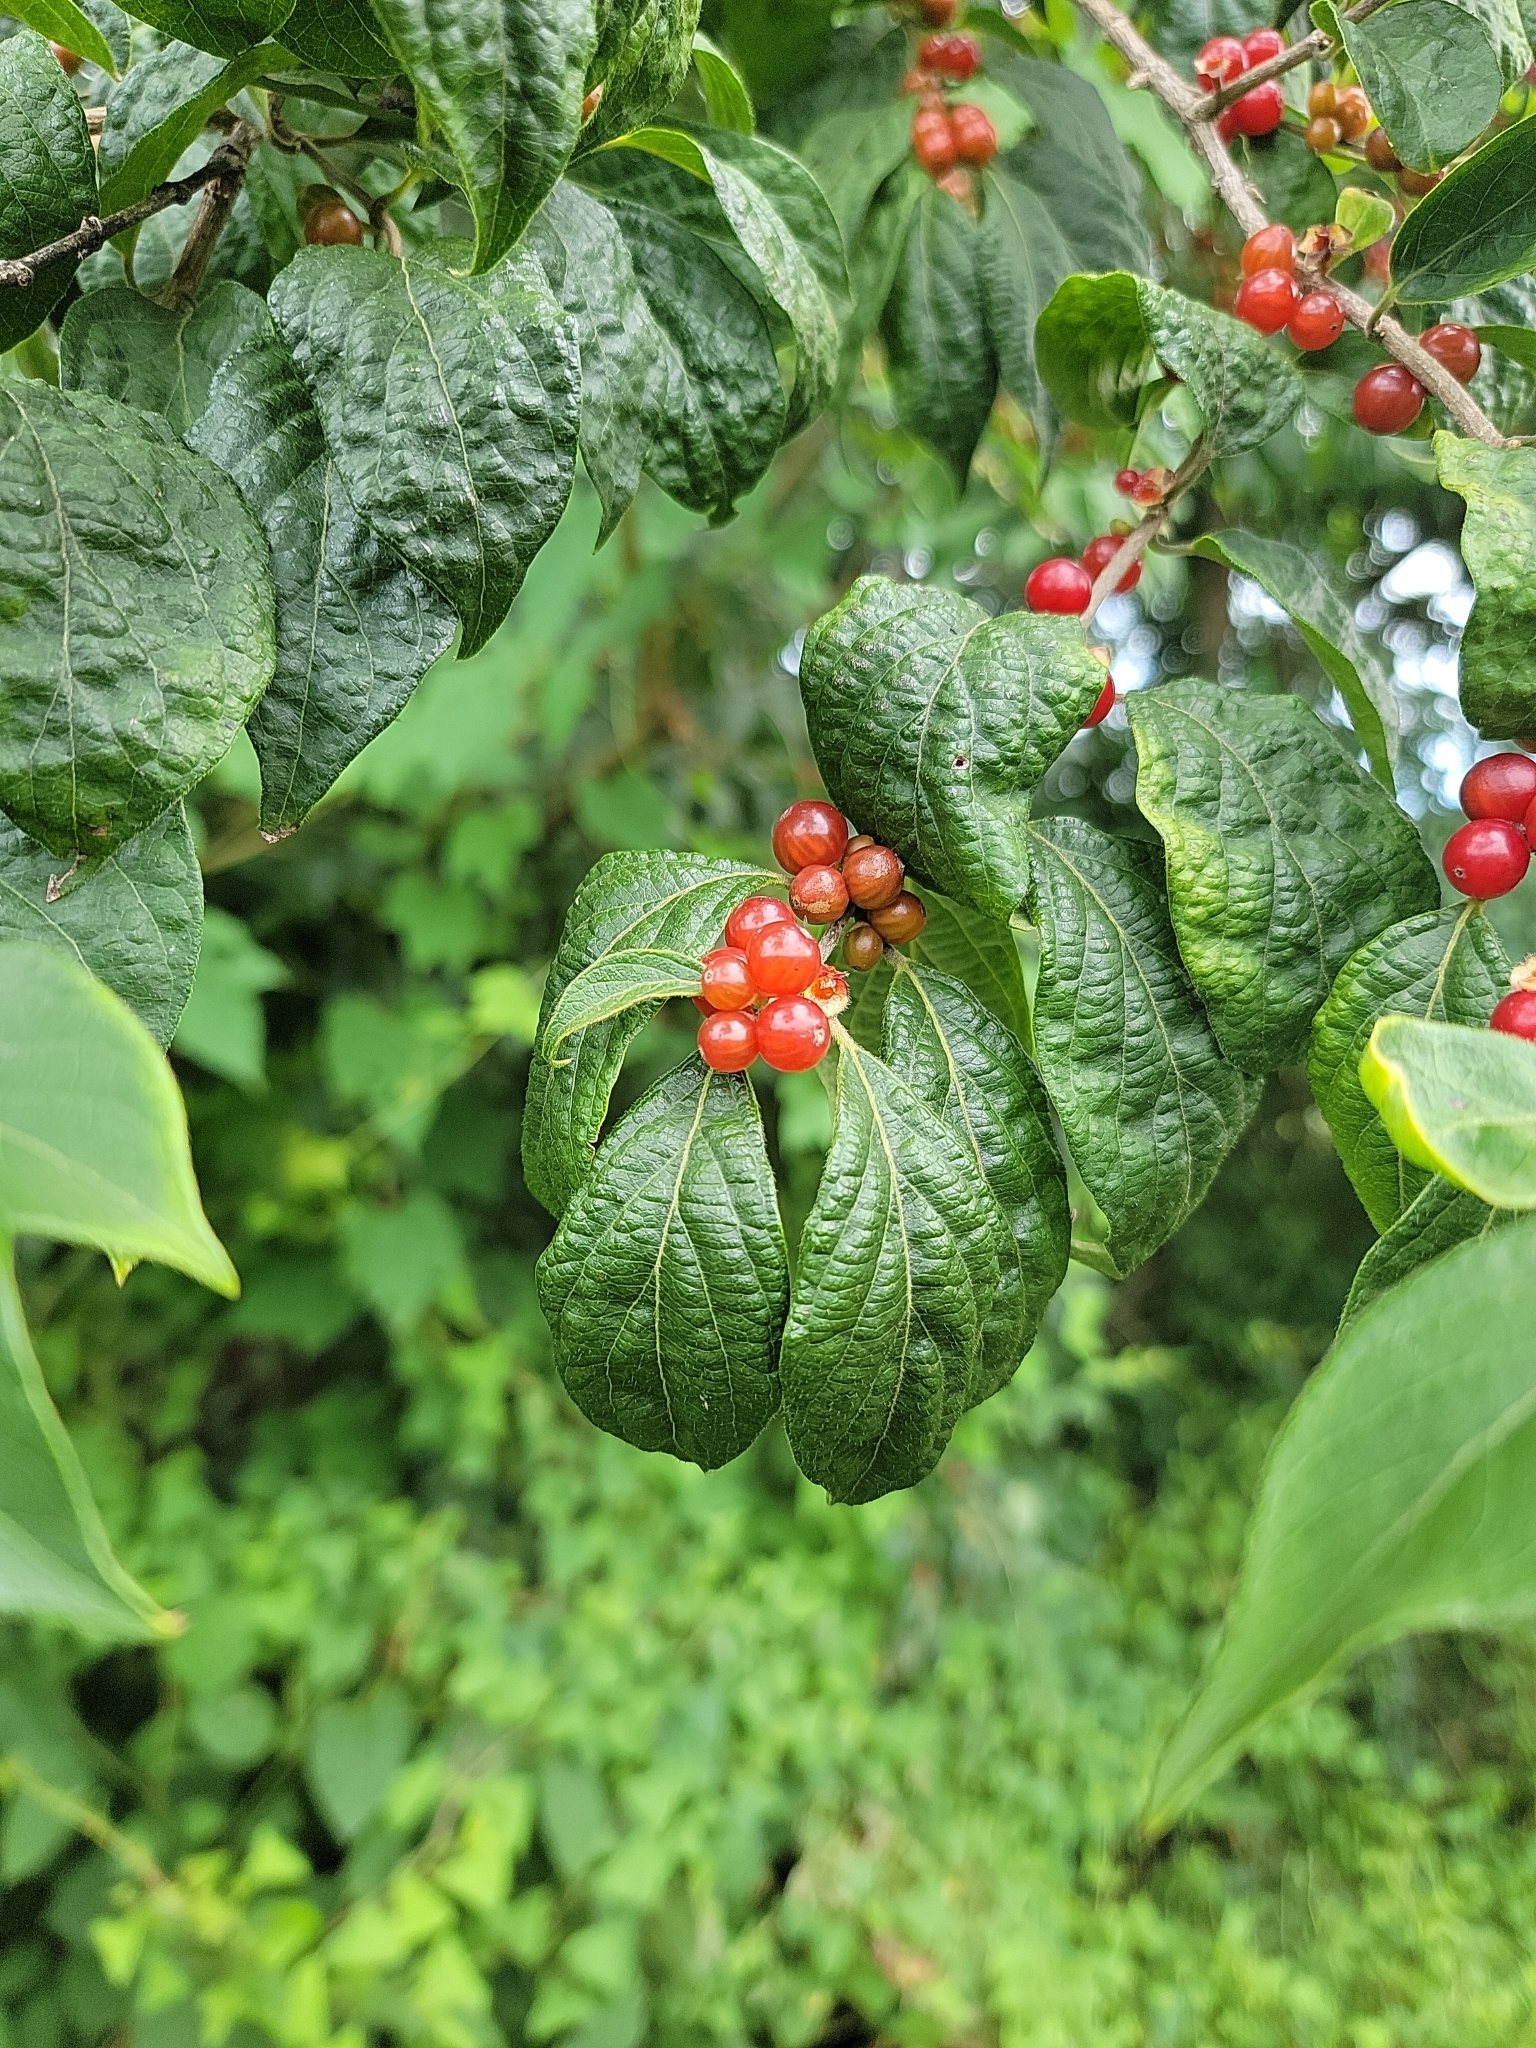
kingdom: Plantae
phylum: Tracheophyta
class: Magnoliopsida
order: Dipsacales
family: Caprifoliaceae
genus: Lonicera
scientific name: Lonicera maackii
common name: Amur honeysuckle
